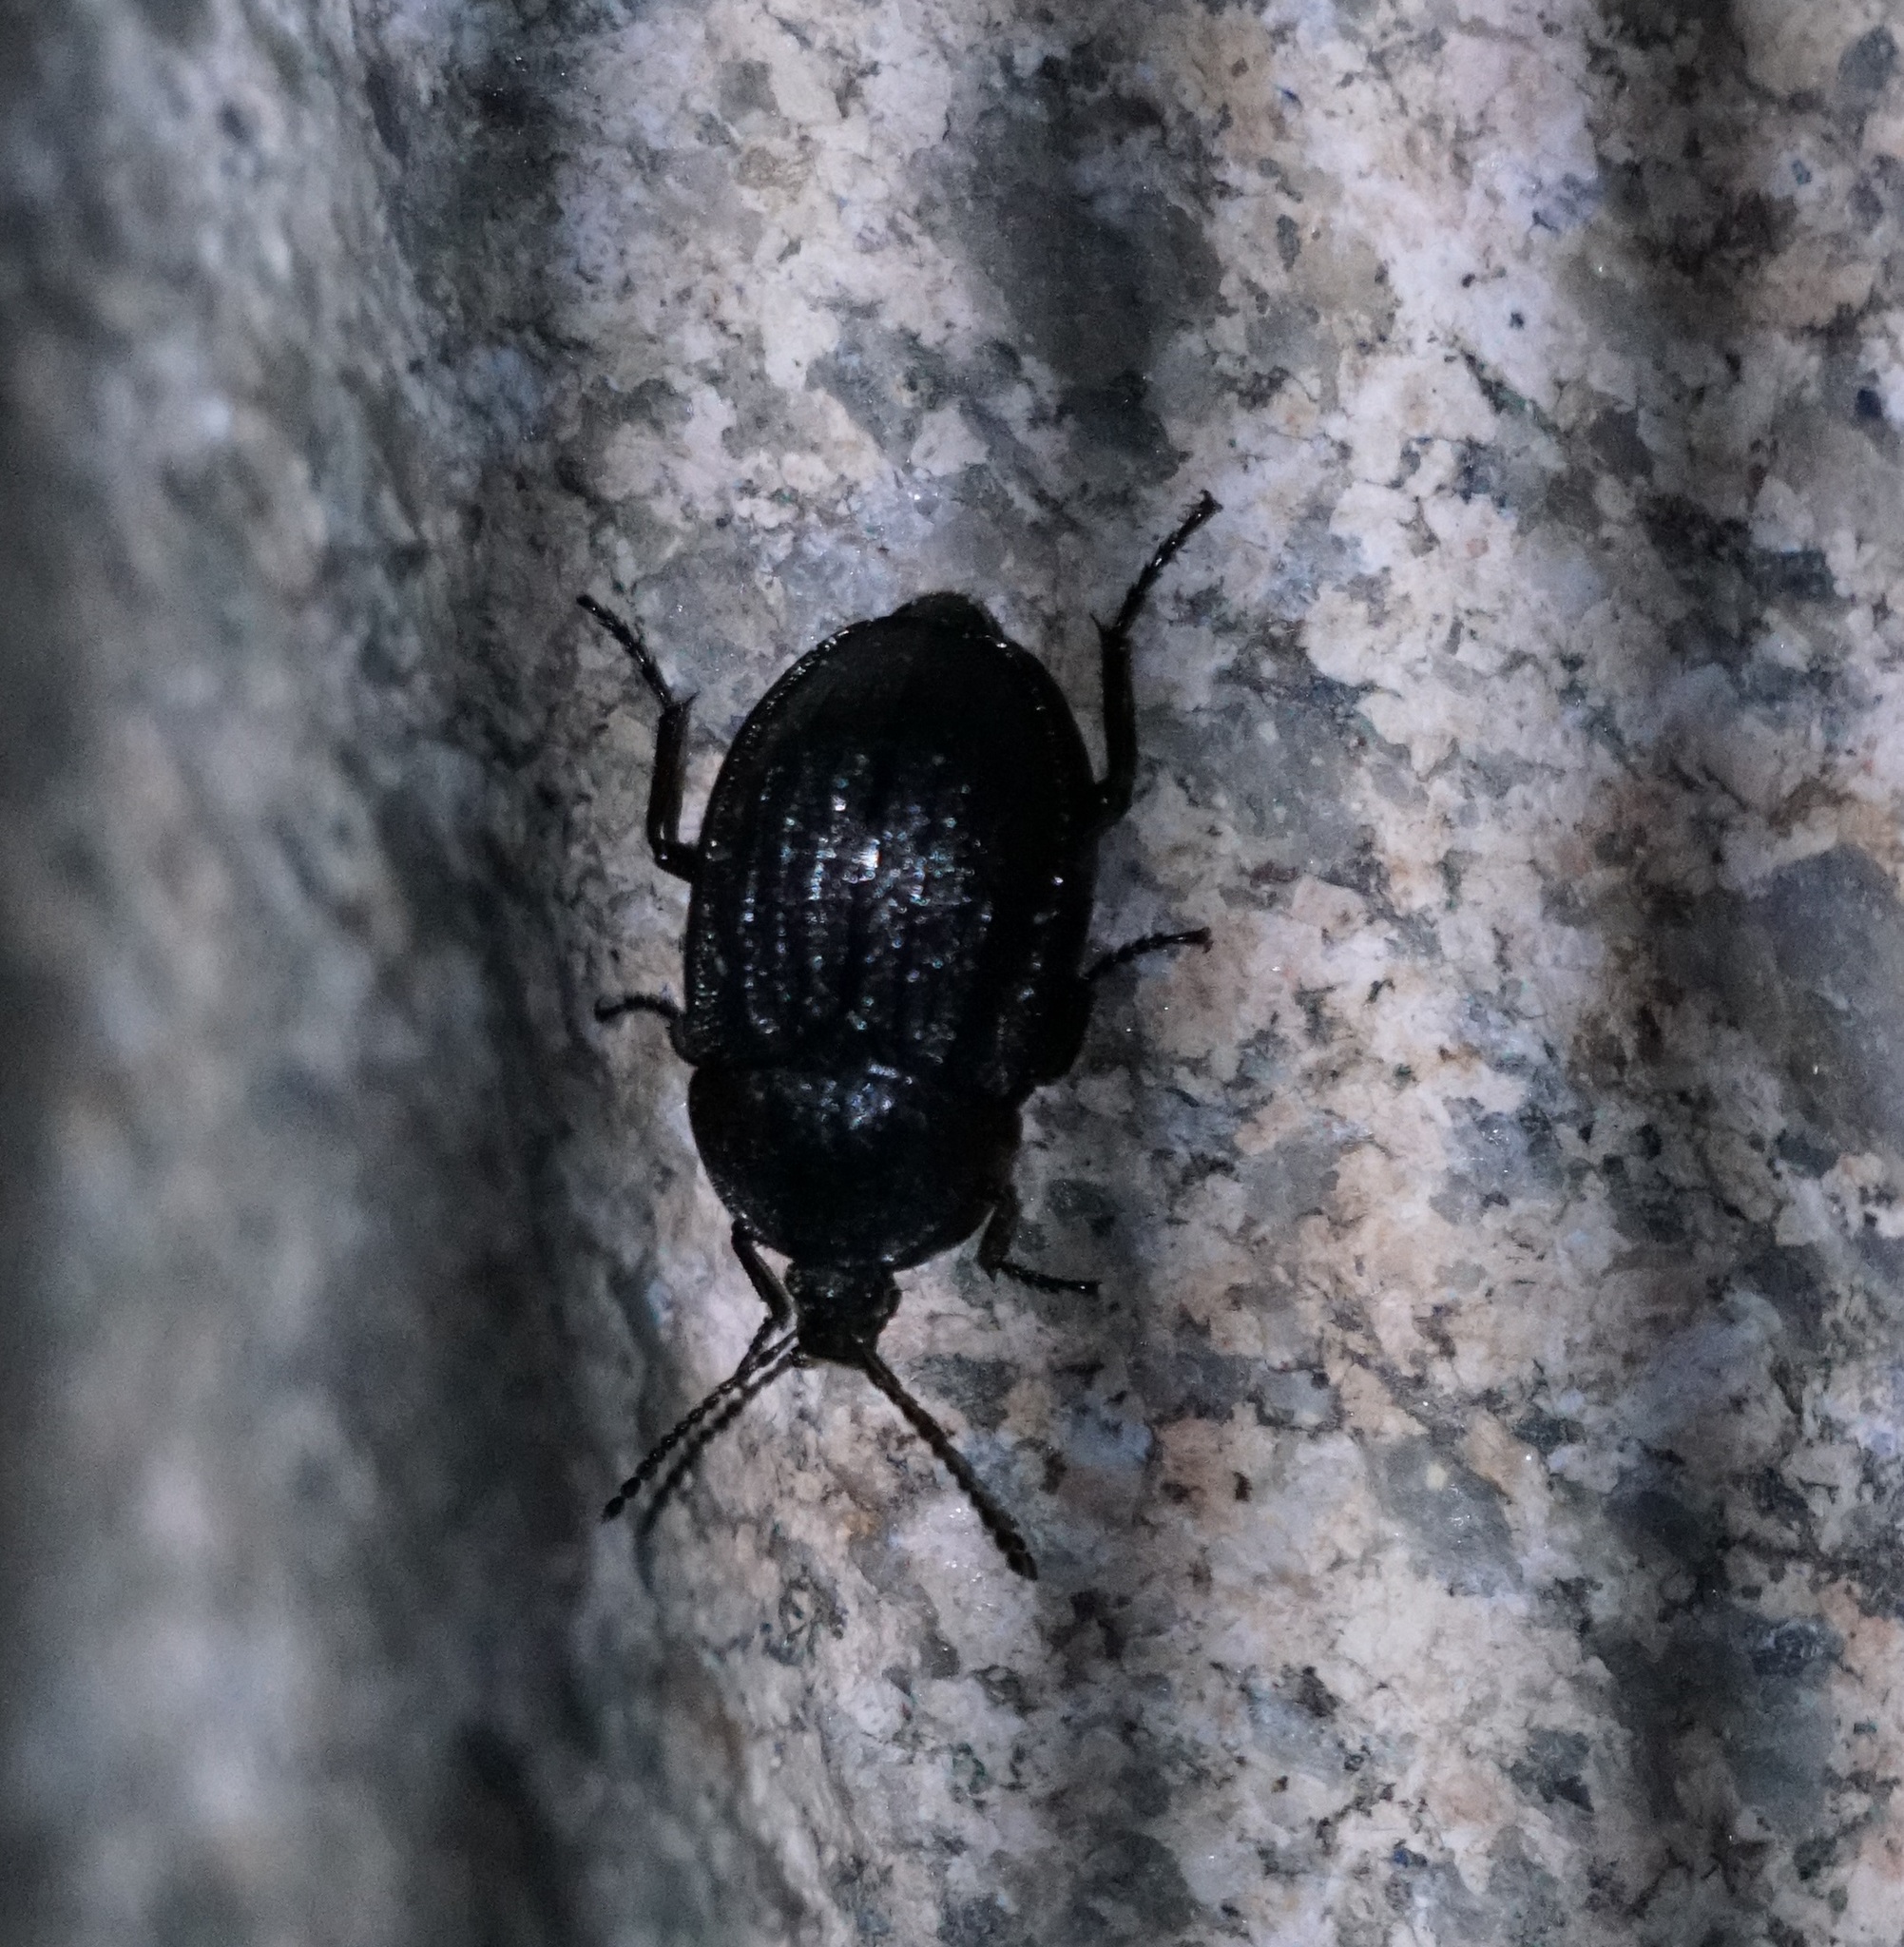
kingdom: Animalia
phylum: Arthropoda
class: Insecta
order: Coleoptera
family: Staphylinidae
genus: Silpha
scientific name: Silpha atrata
